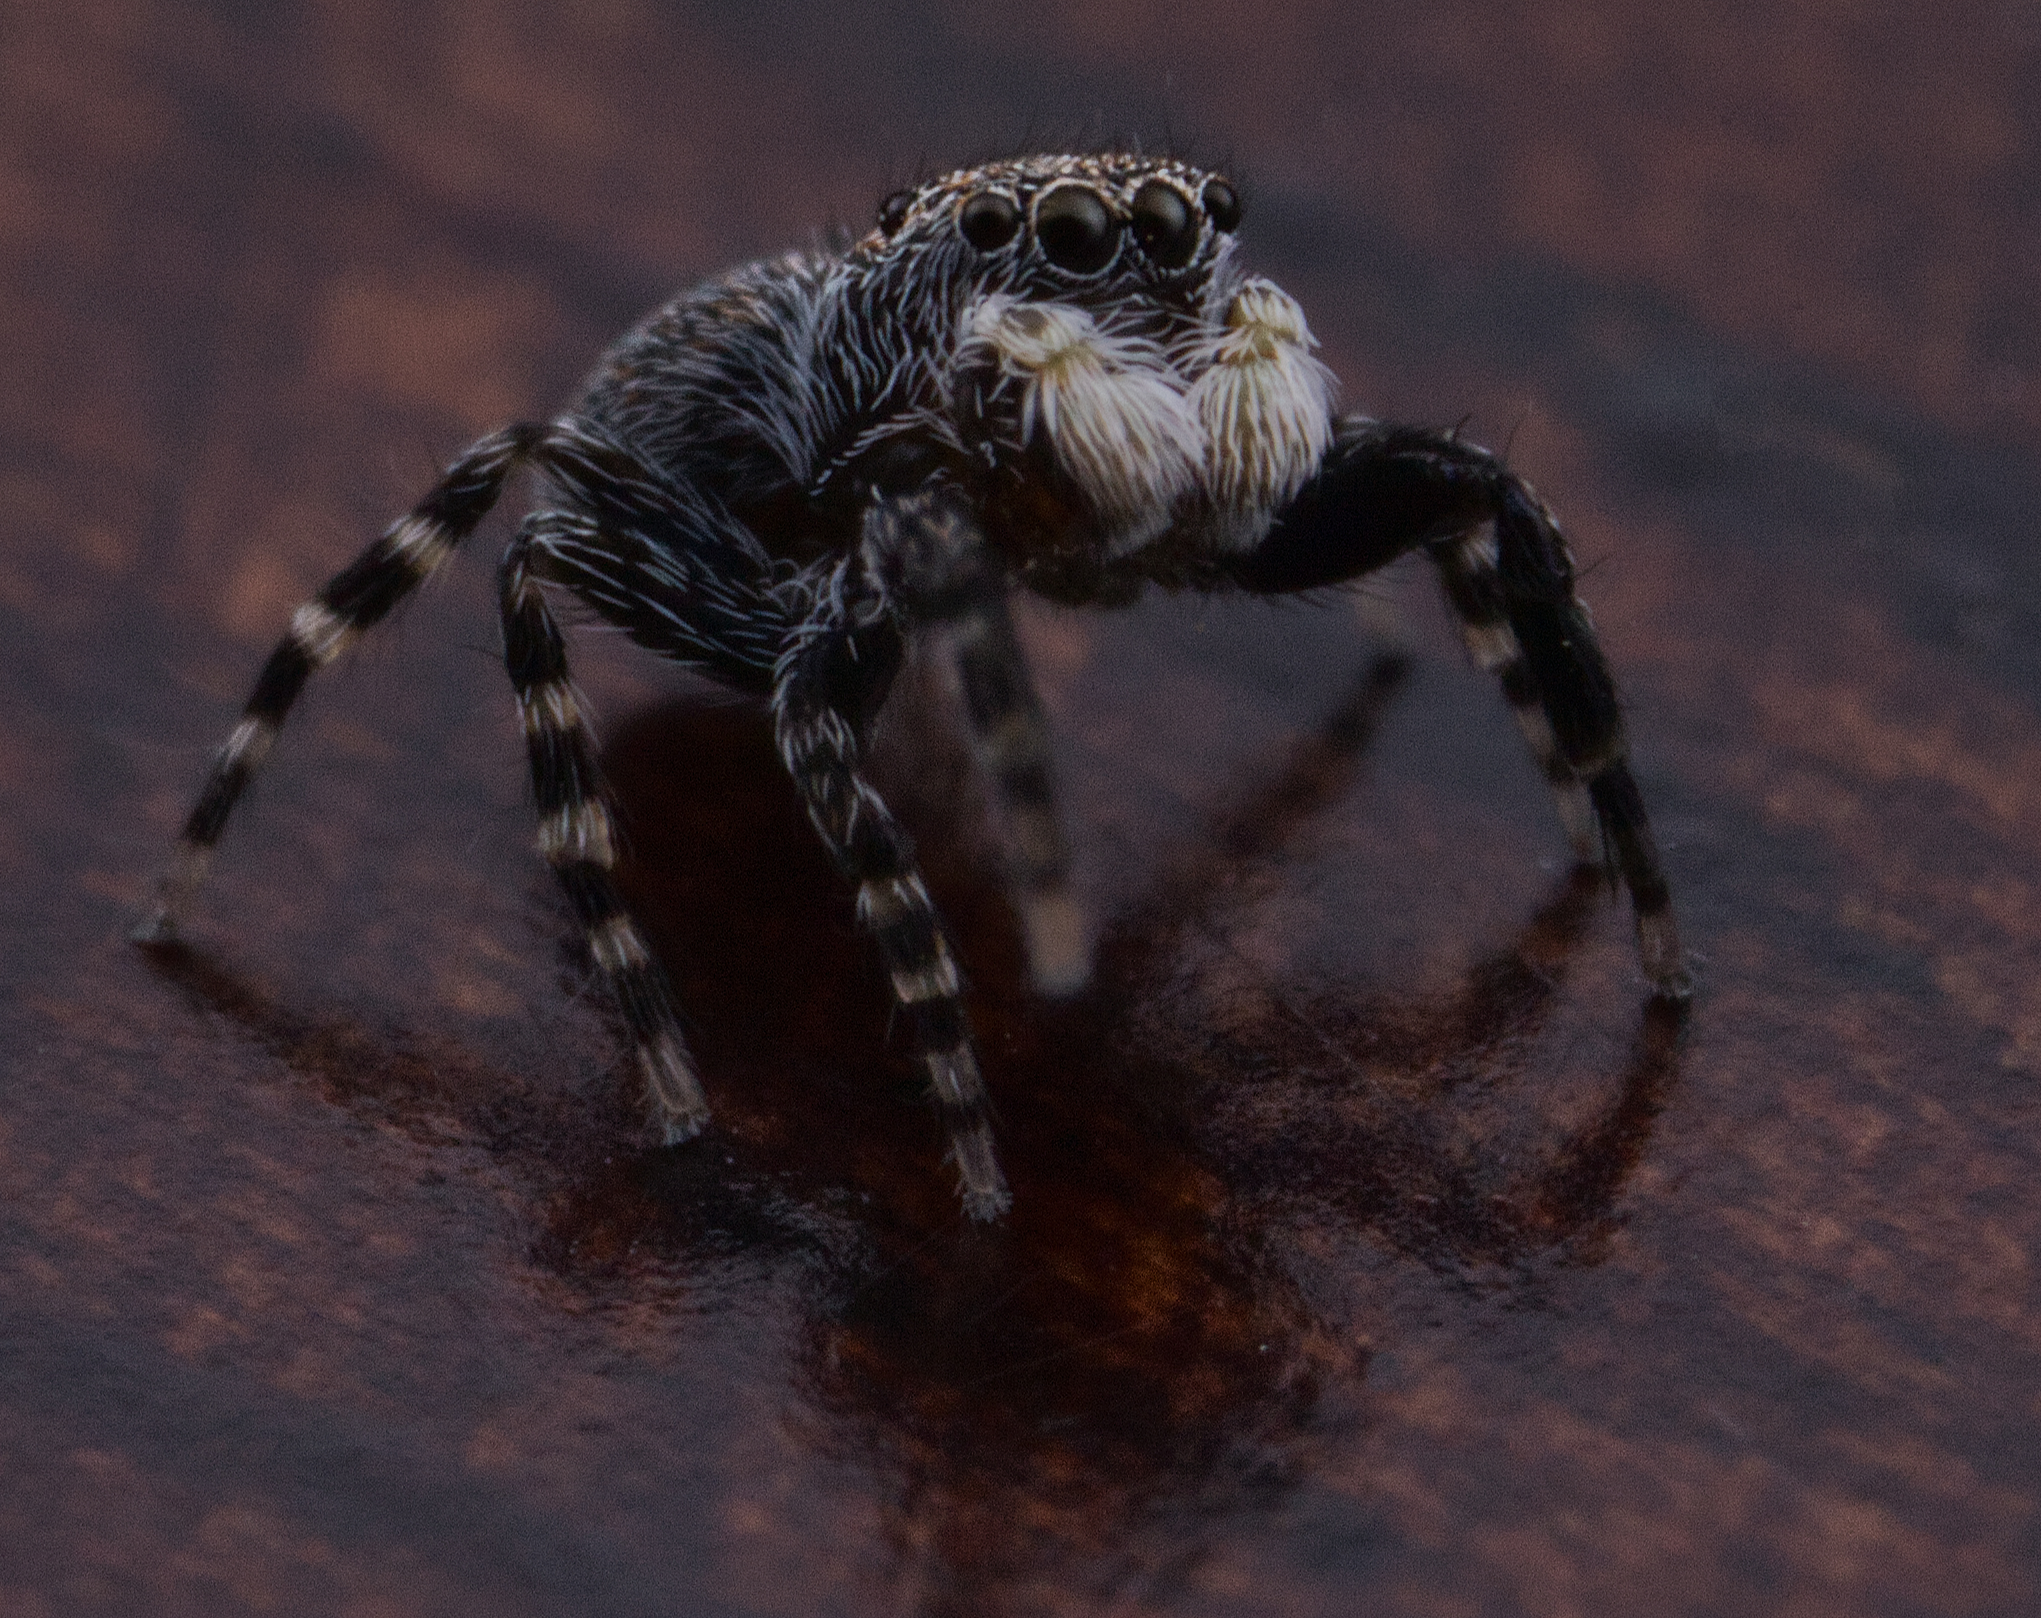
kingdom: Animalia
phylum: Arthropoda
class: Arachnida
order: Araneae
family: Salticidae
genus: Talavera
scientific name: Talavera minuta
